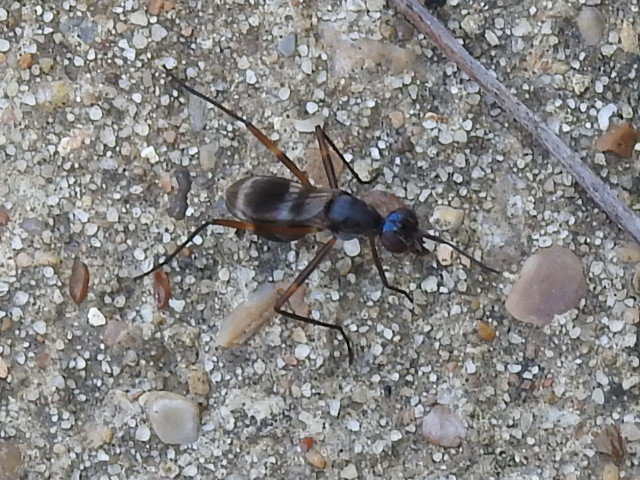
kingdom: Animalia
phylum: Arthropoda
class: Insecta
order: Diptera
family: Micropezidae
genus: Taeniaptera
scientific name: Taeniaptera trivittata
